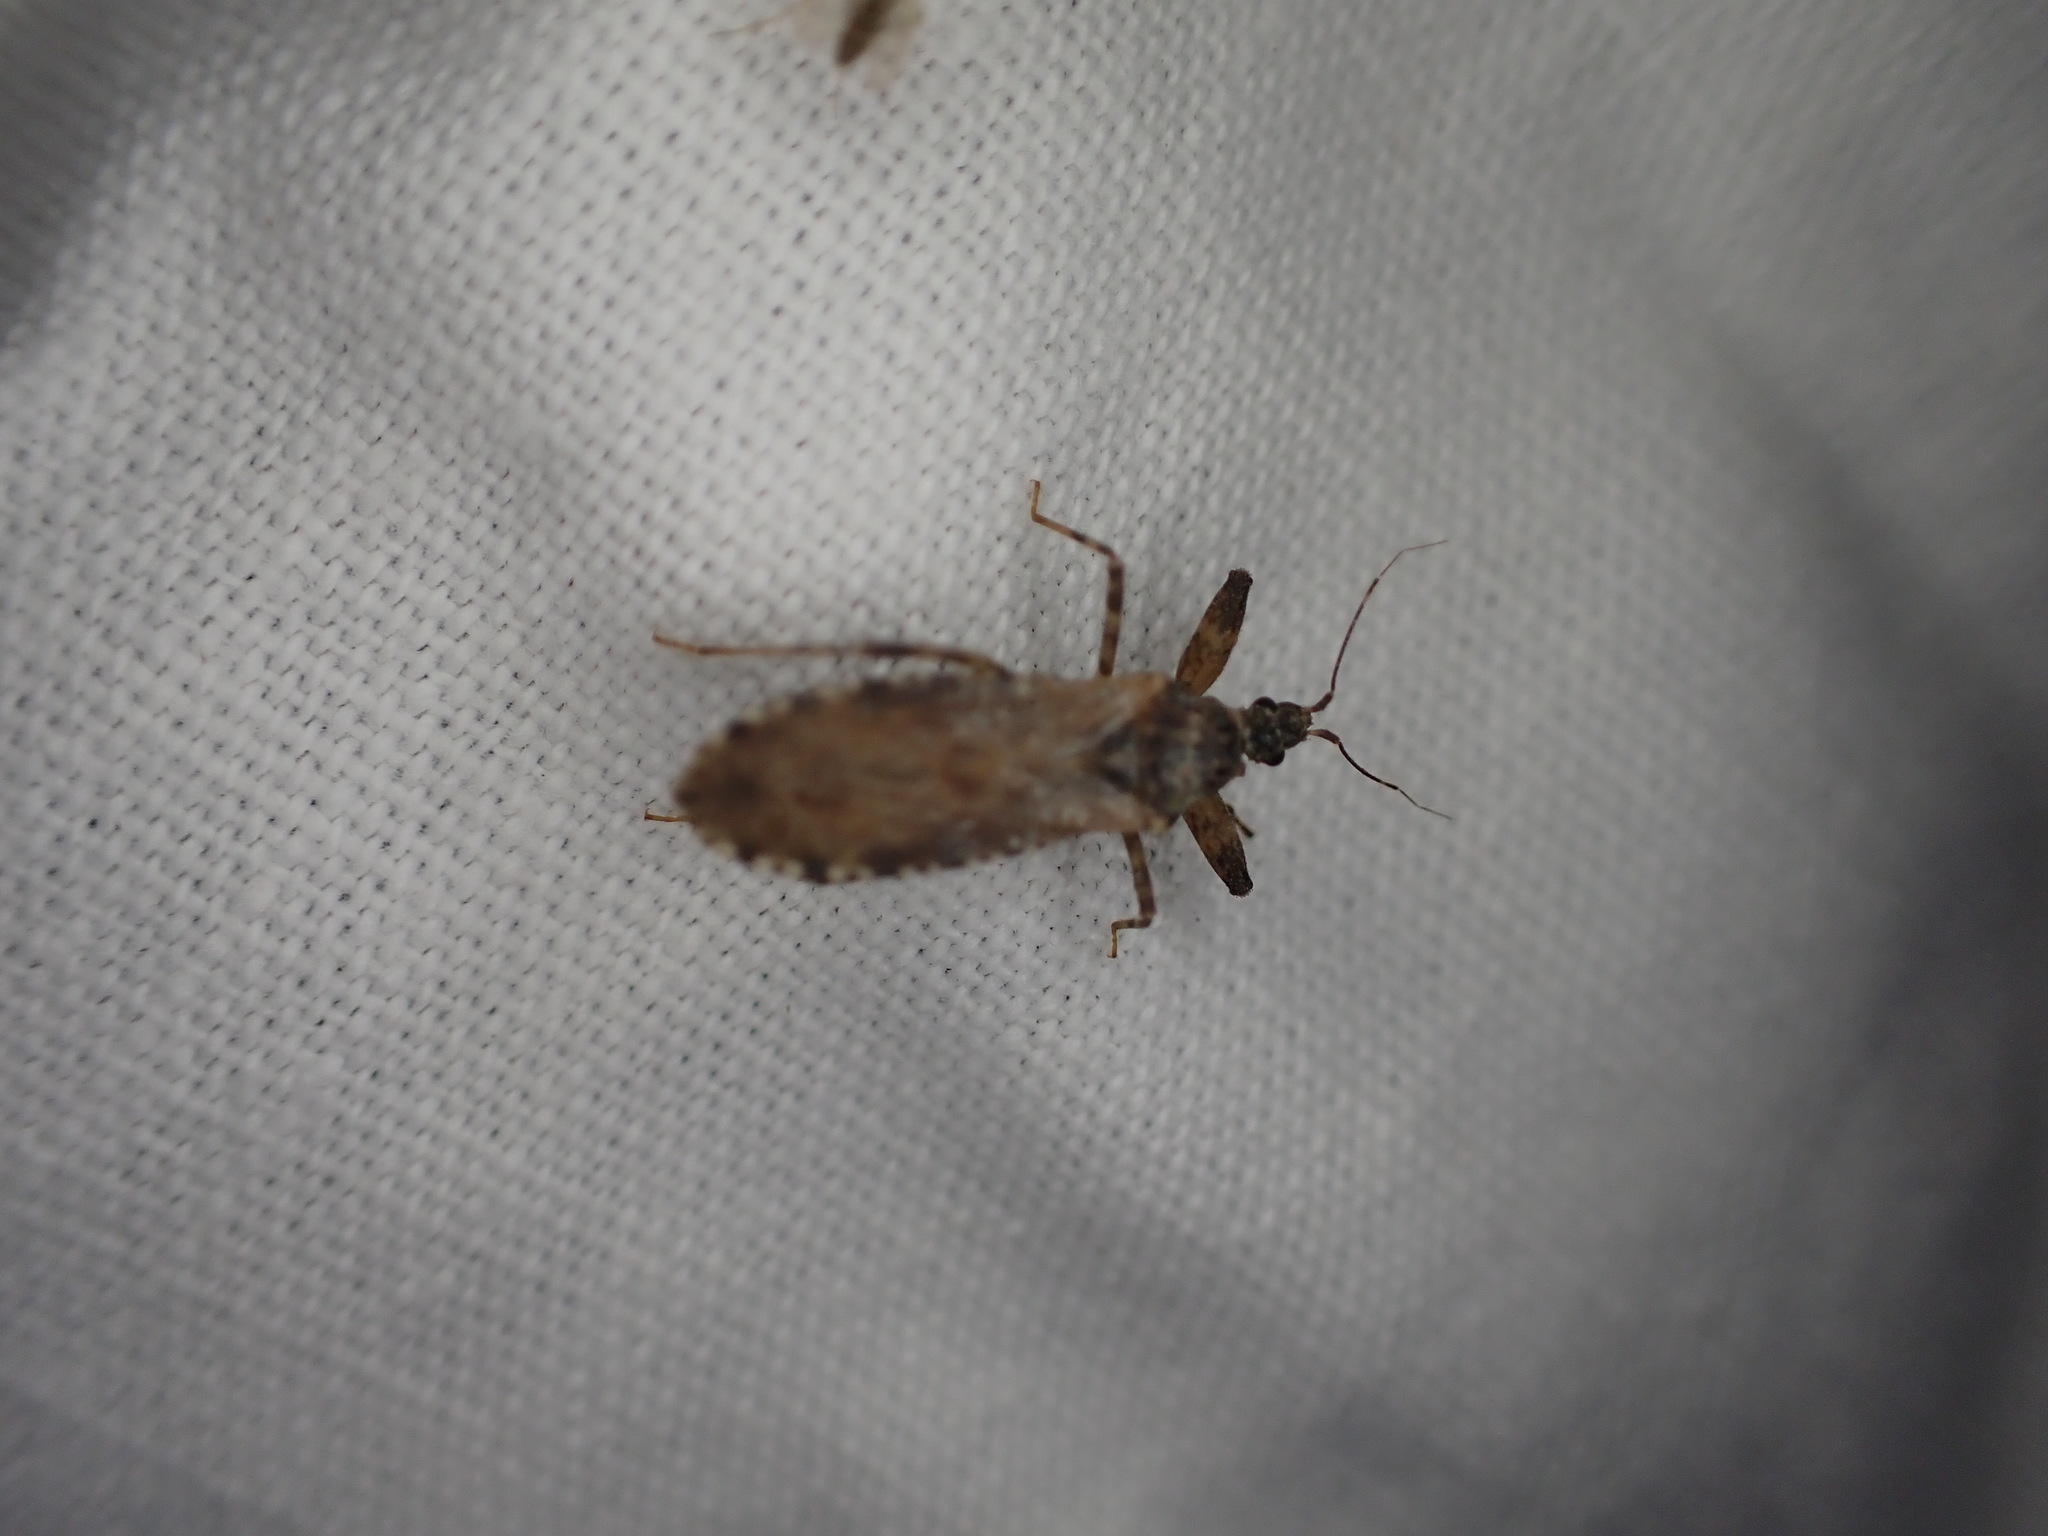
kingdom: Animalia
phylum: Arthropoda
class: Insecta
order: Hemiptera
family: Reduviidae
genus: Oncocephalus
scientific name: Oncocephalus squalidus
